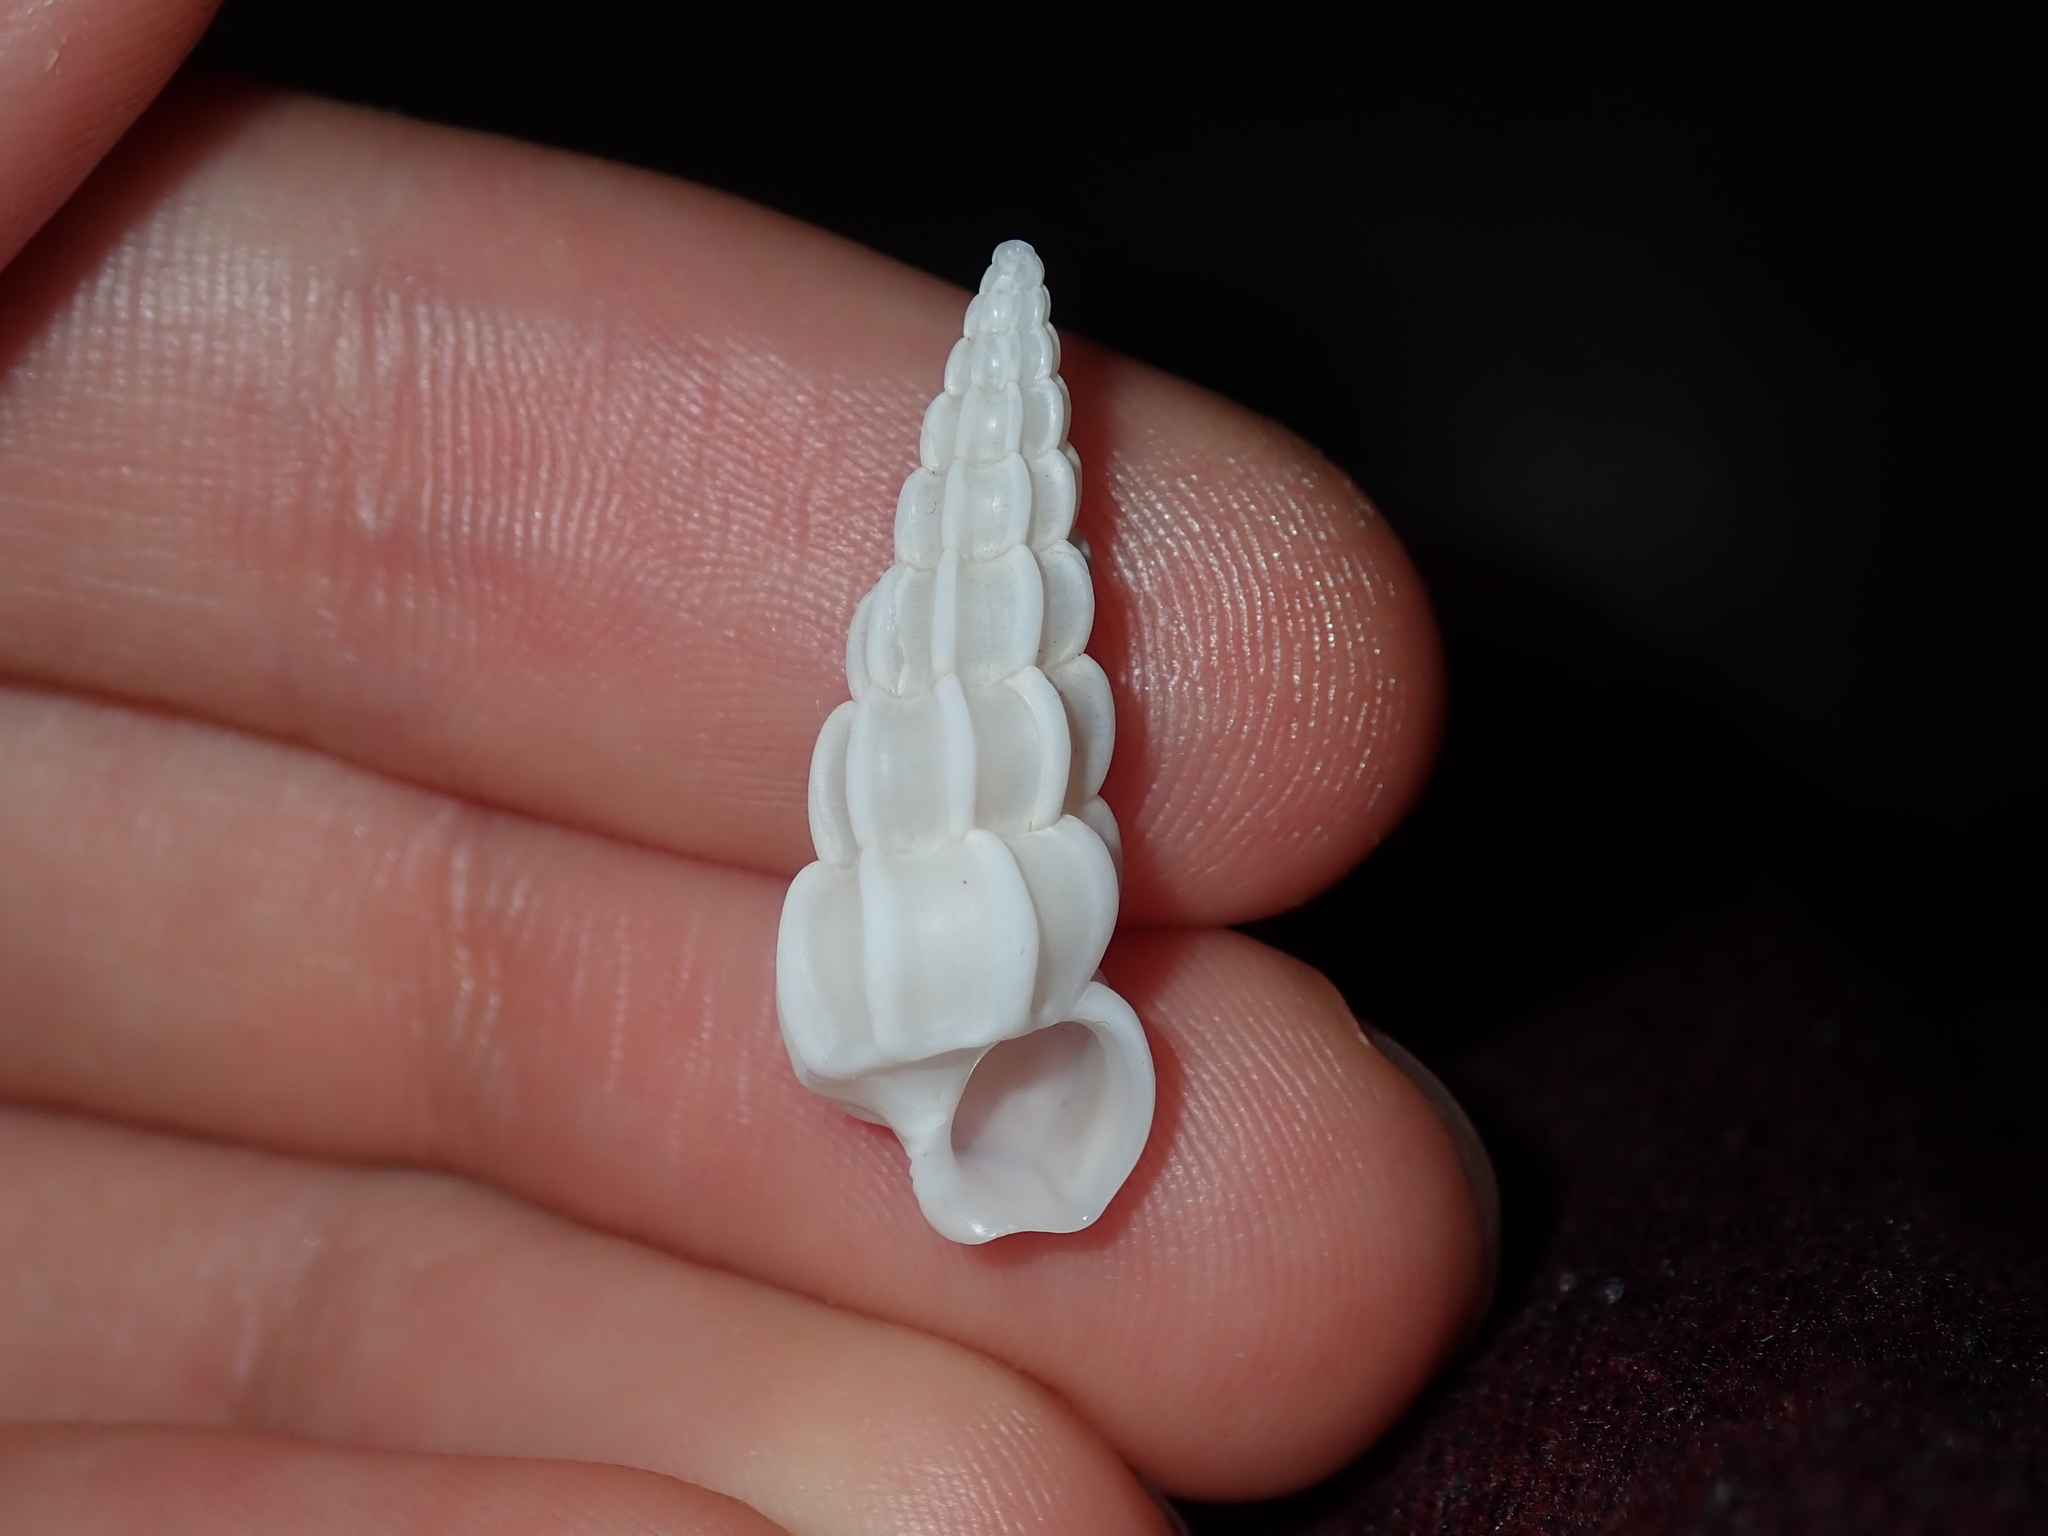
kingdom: Animalia
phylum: Mollusca
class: Gastropoda
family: Epitoniidae
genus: Opalia
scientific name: Opalia australis
